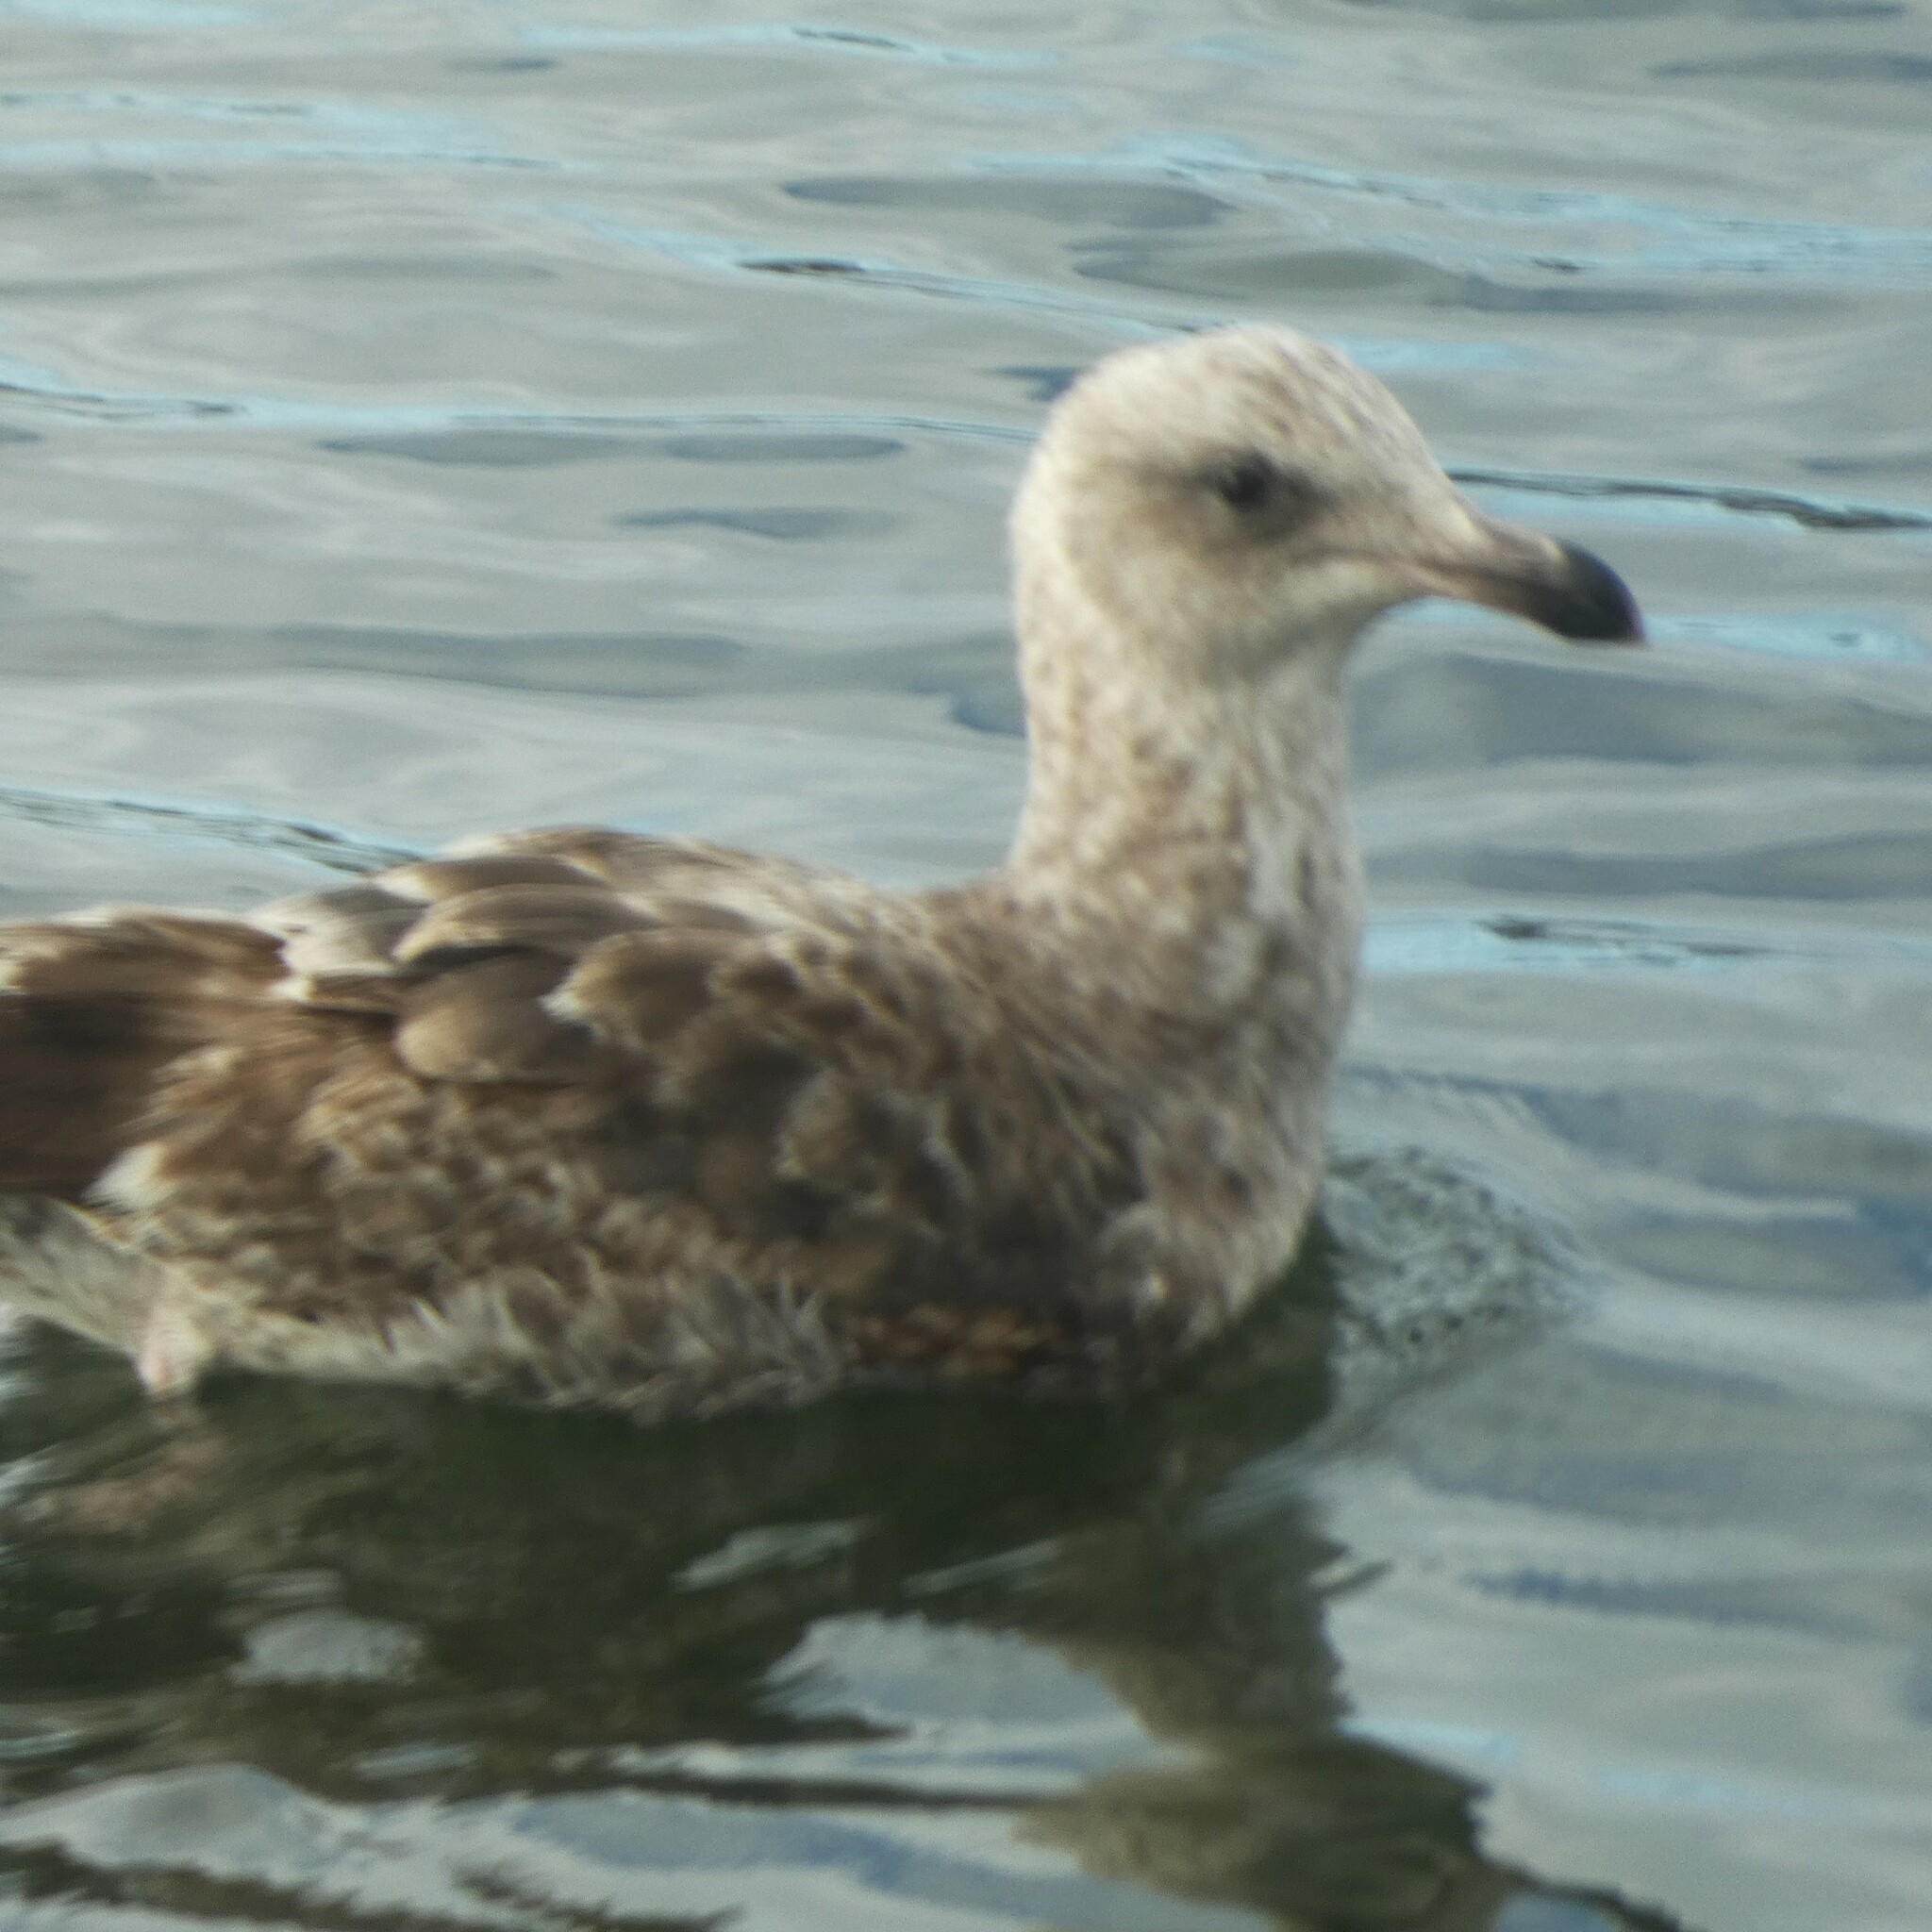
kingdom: Animalia
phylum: Chordata
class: Aves
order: Charadriiformes
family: Laridae
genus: Larus
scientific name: Larus occidentalis
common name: Western gull
